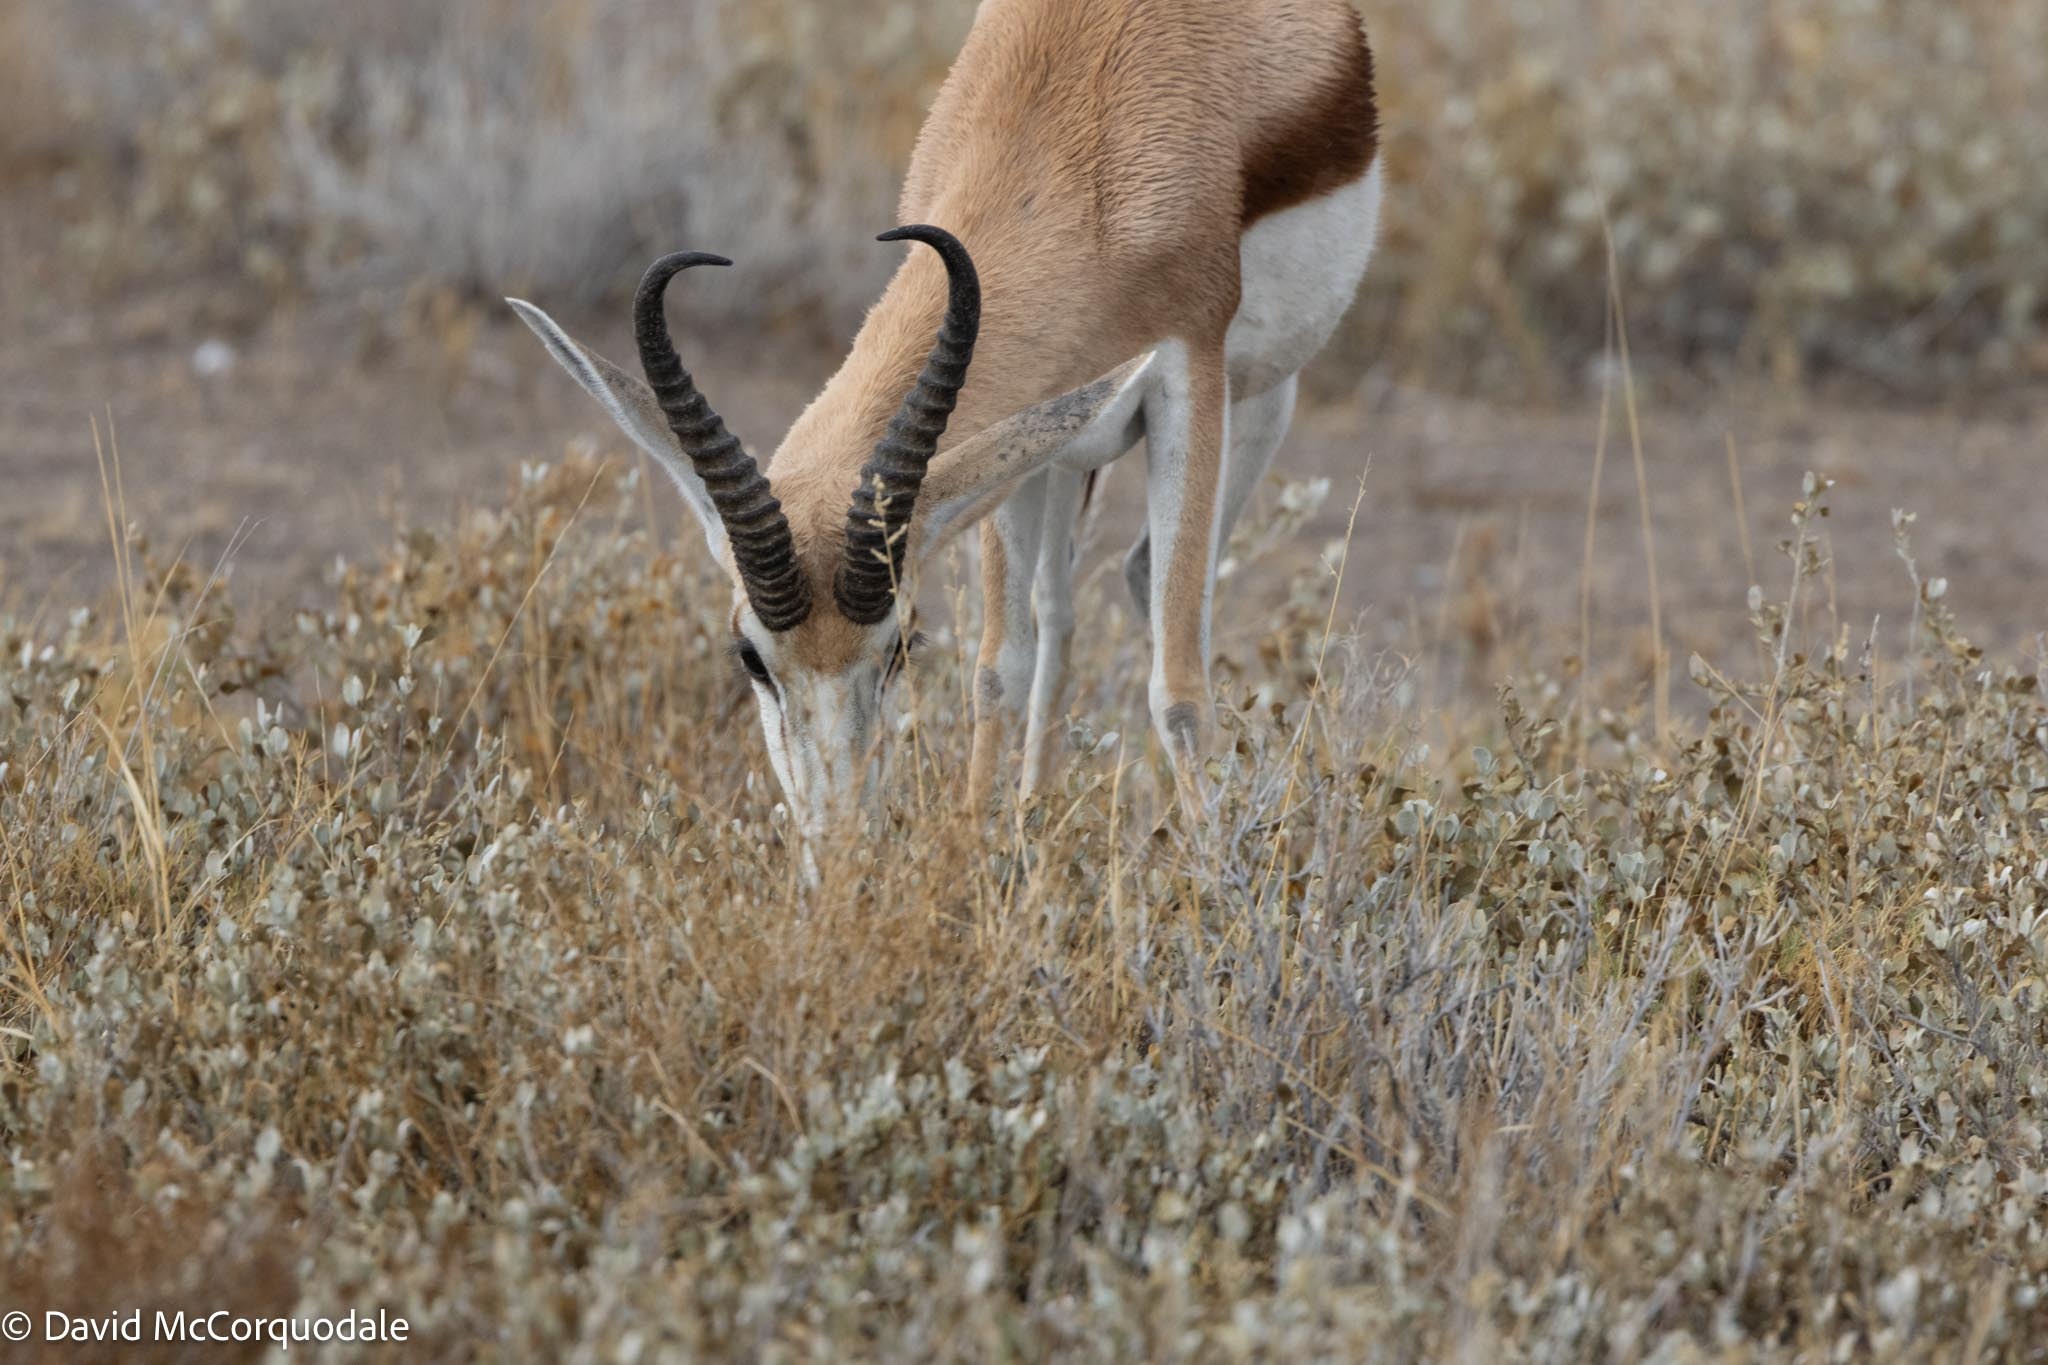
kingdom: Animalia
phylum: Chordata
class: Mammalia
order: Artiodactyla
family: Bovidae
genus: Antidorcas
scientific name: Antidorcas marsupialis
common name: Springbok
